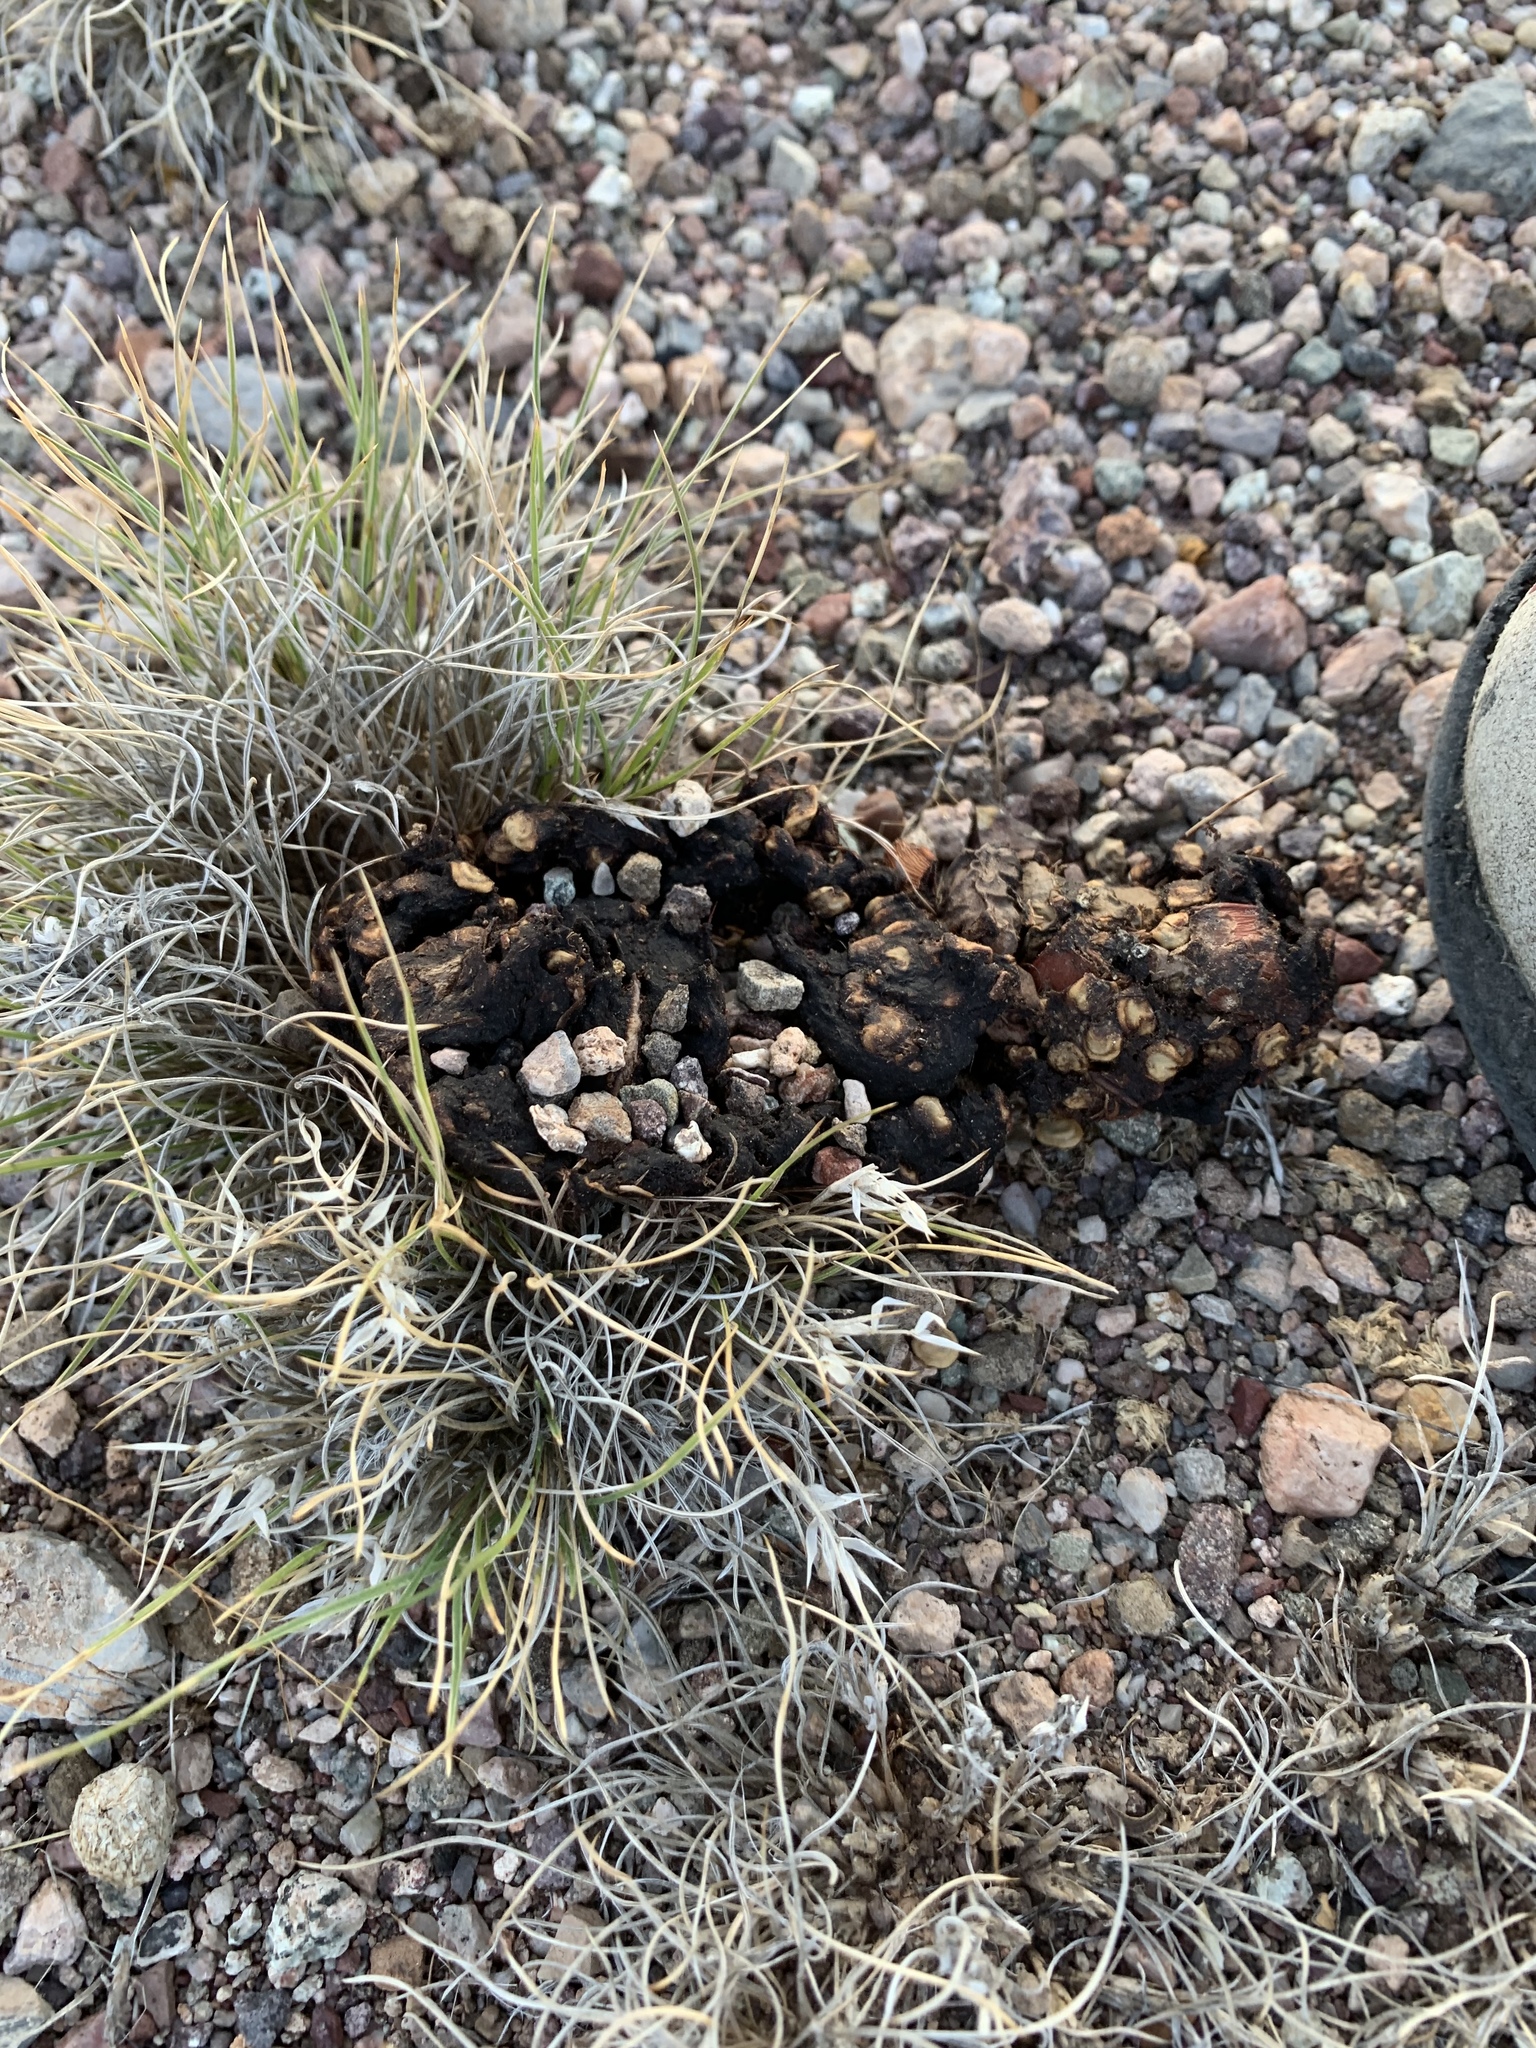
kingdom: Animalia
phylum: Chordata
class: Mammalia
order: Artiodactyla
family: Tayassuidae
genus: Pecari
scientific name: Pecari tajacu
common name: Collared peccary
